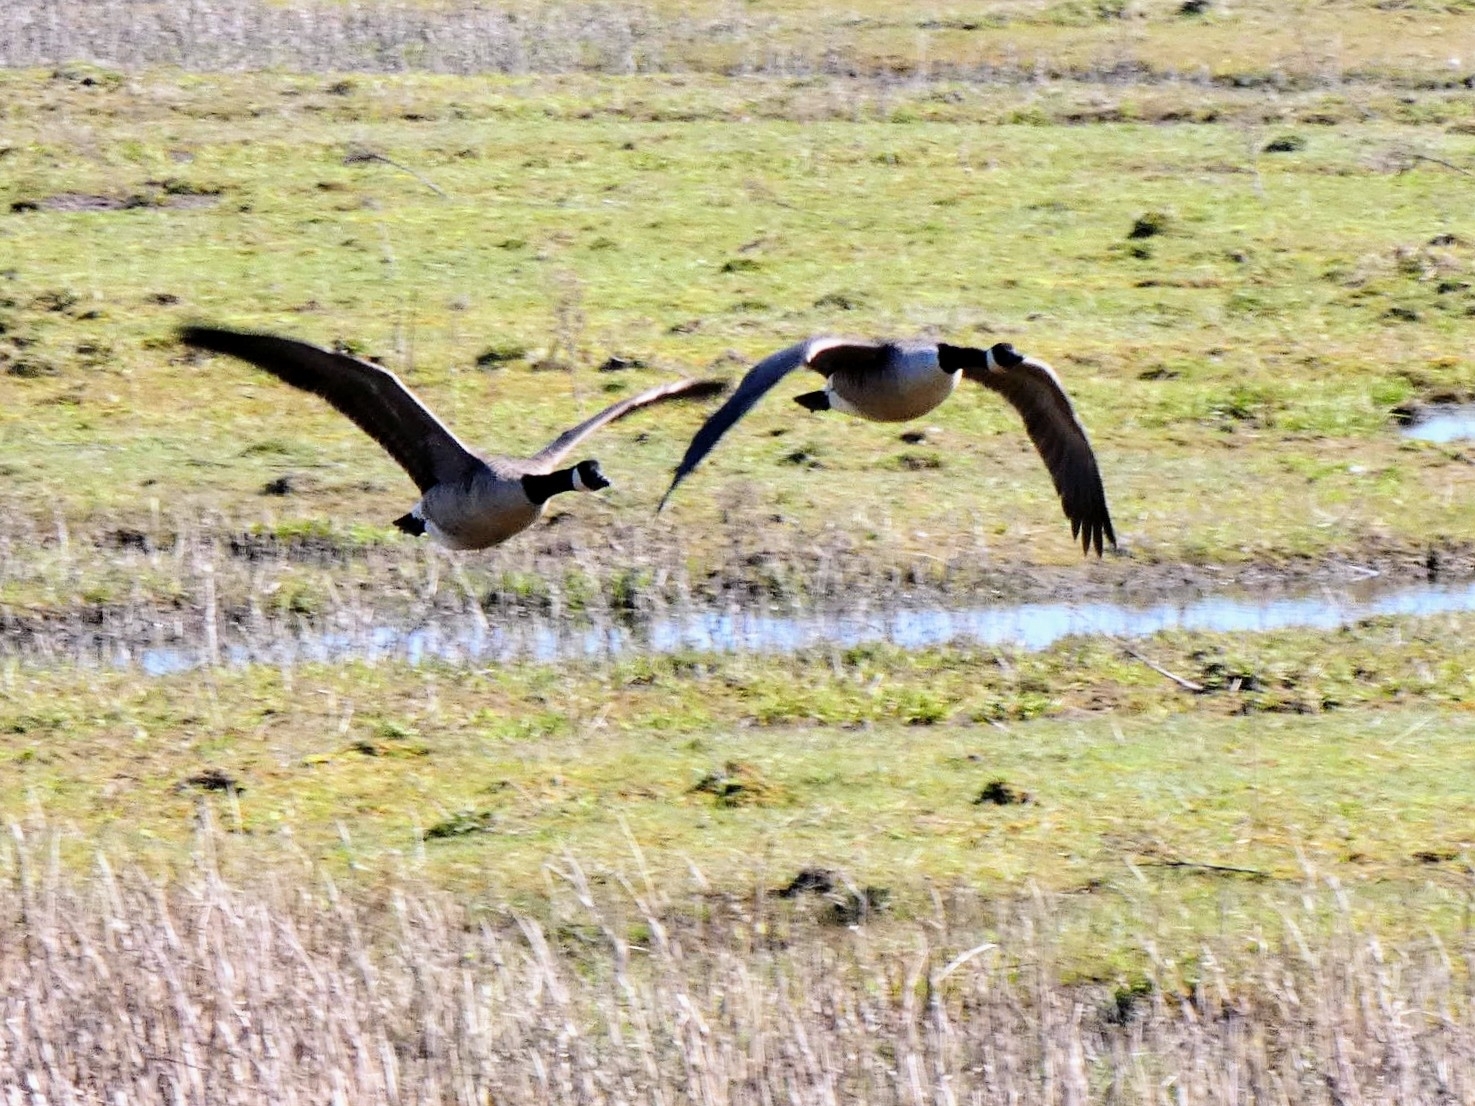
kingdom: Animalia
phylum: Chordata
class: Aves
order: Anseriformes
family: Anatidae
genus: Branta
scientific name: Branta canadensis
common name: Canada goose
